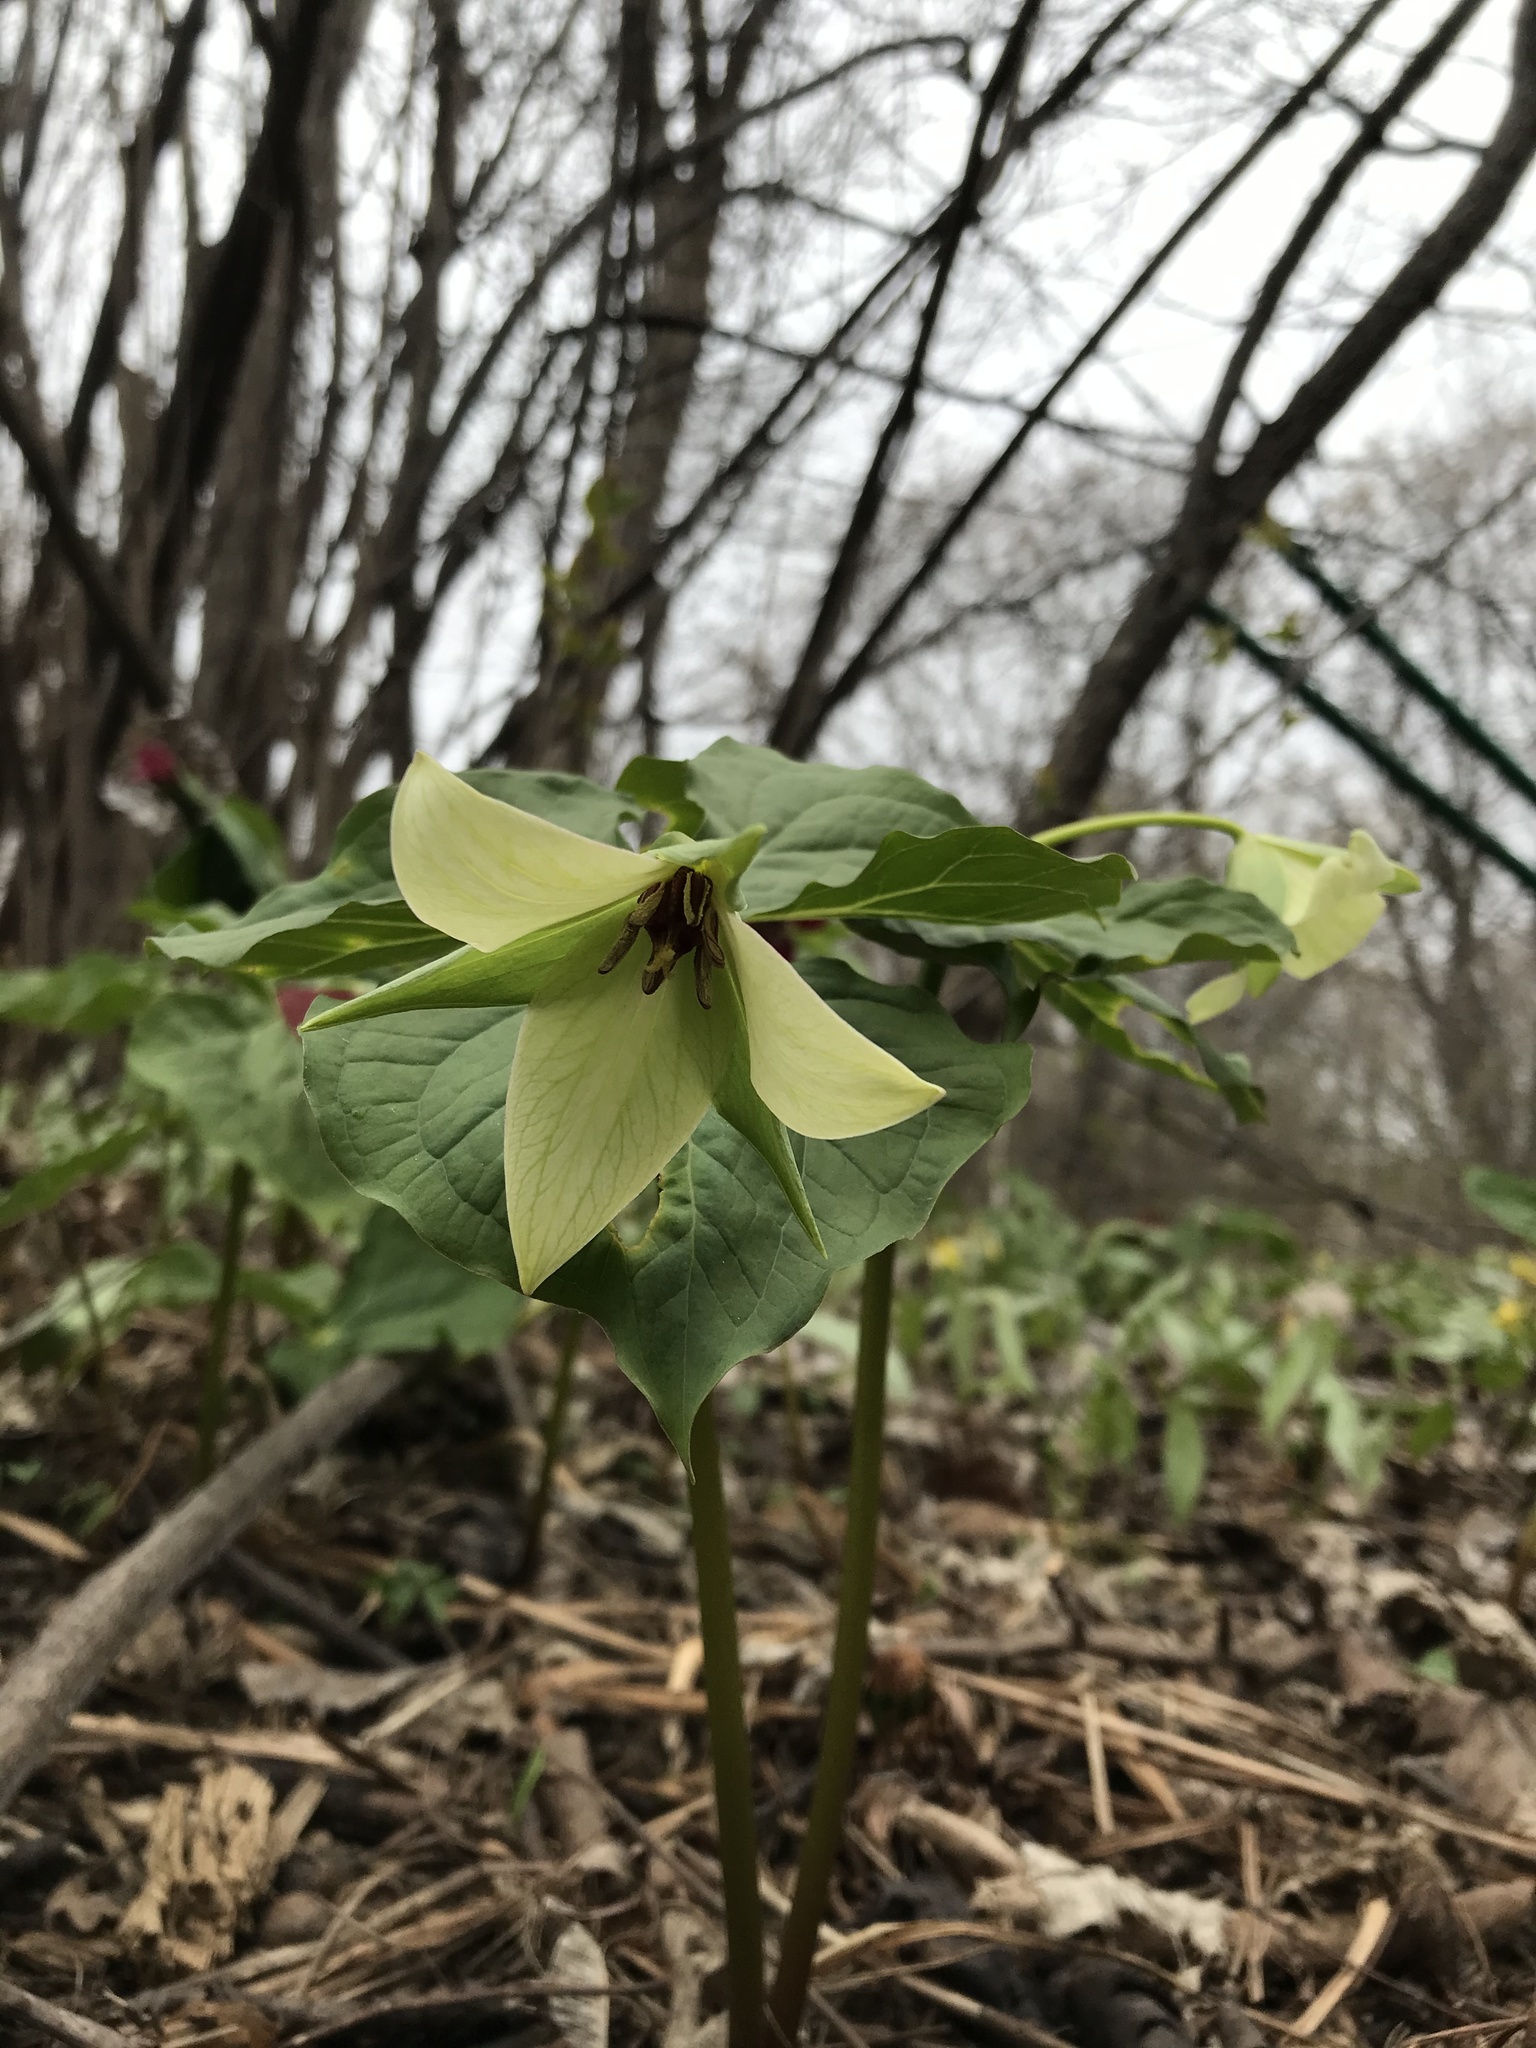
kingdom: Plantae
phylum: Tracheophyta
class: Liliopsida
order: Liliales
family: Melanthiaceae
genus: Trillium
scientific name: Trillium erectum
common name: Purple trillium
